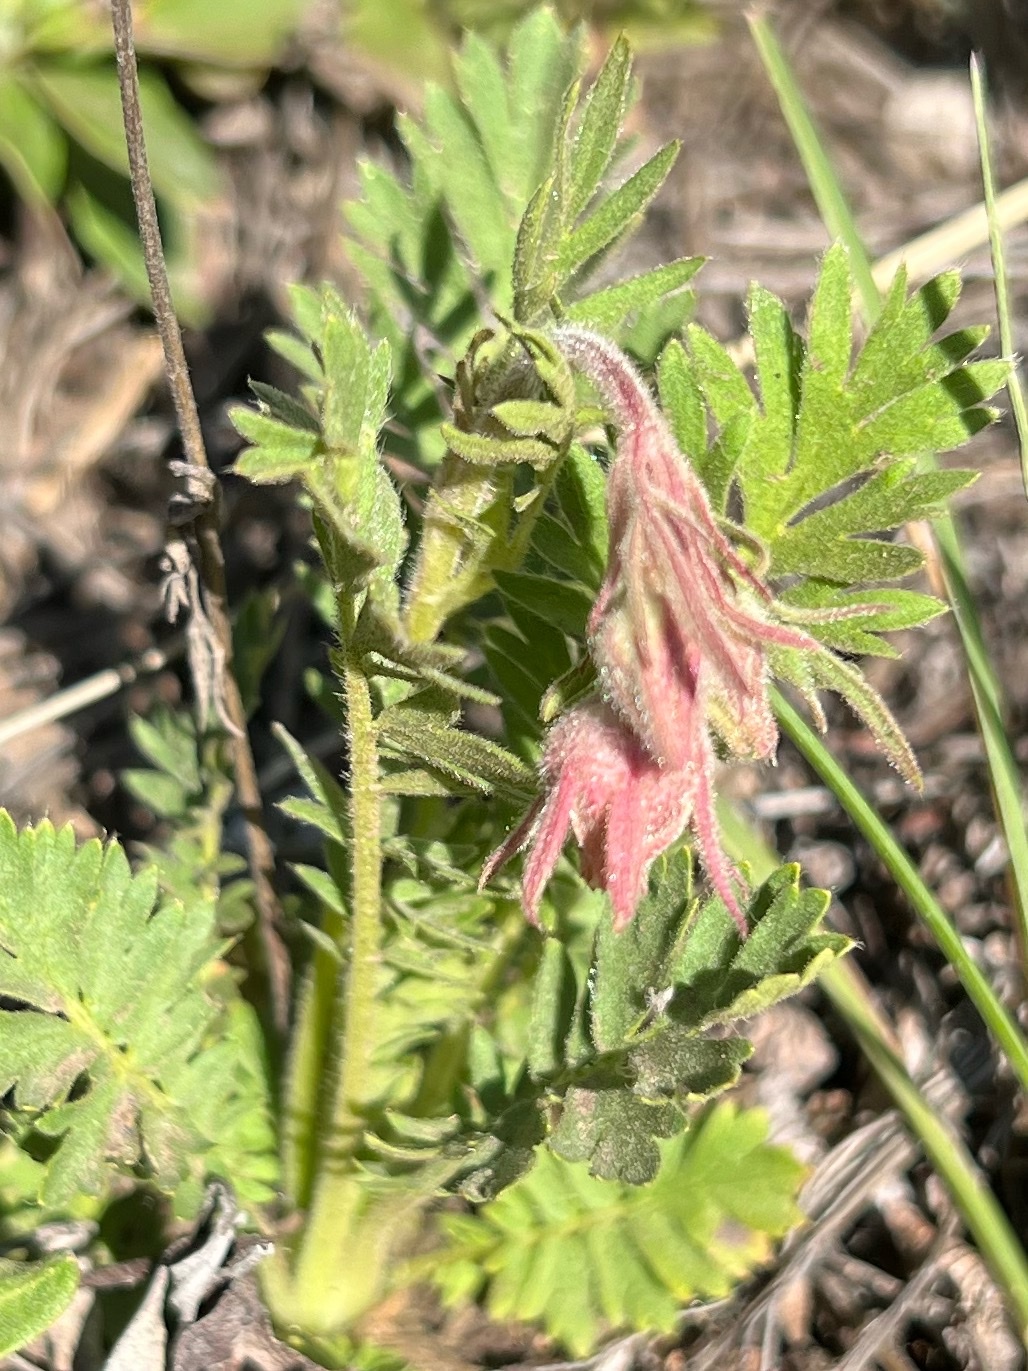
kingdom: Plantae
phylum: Tracheophyta
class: Magnoliopsida
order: Rosales
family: Rosaceae
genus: Geum
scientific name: Geum triflorum
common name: Old man's whiskers
